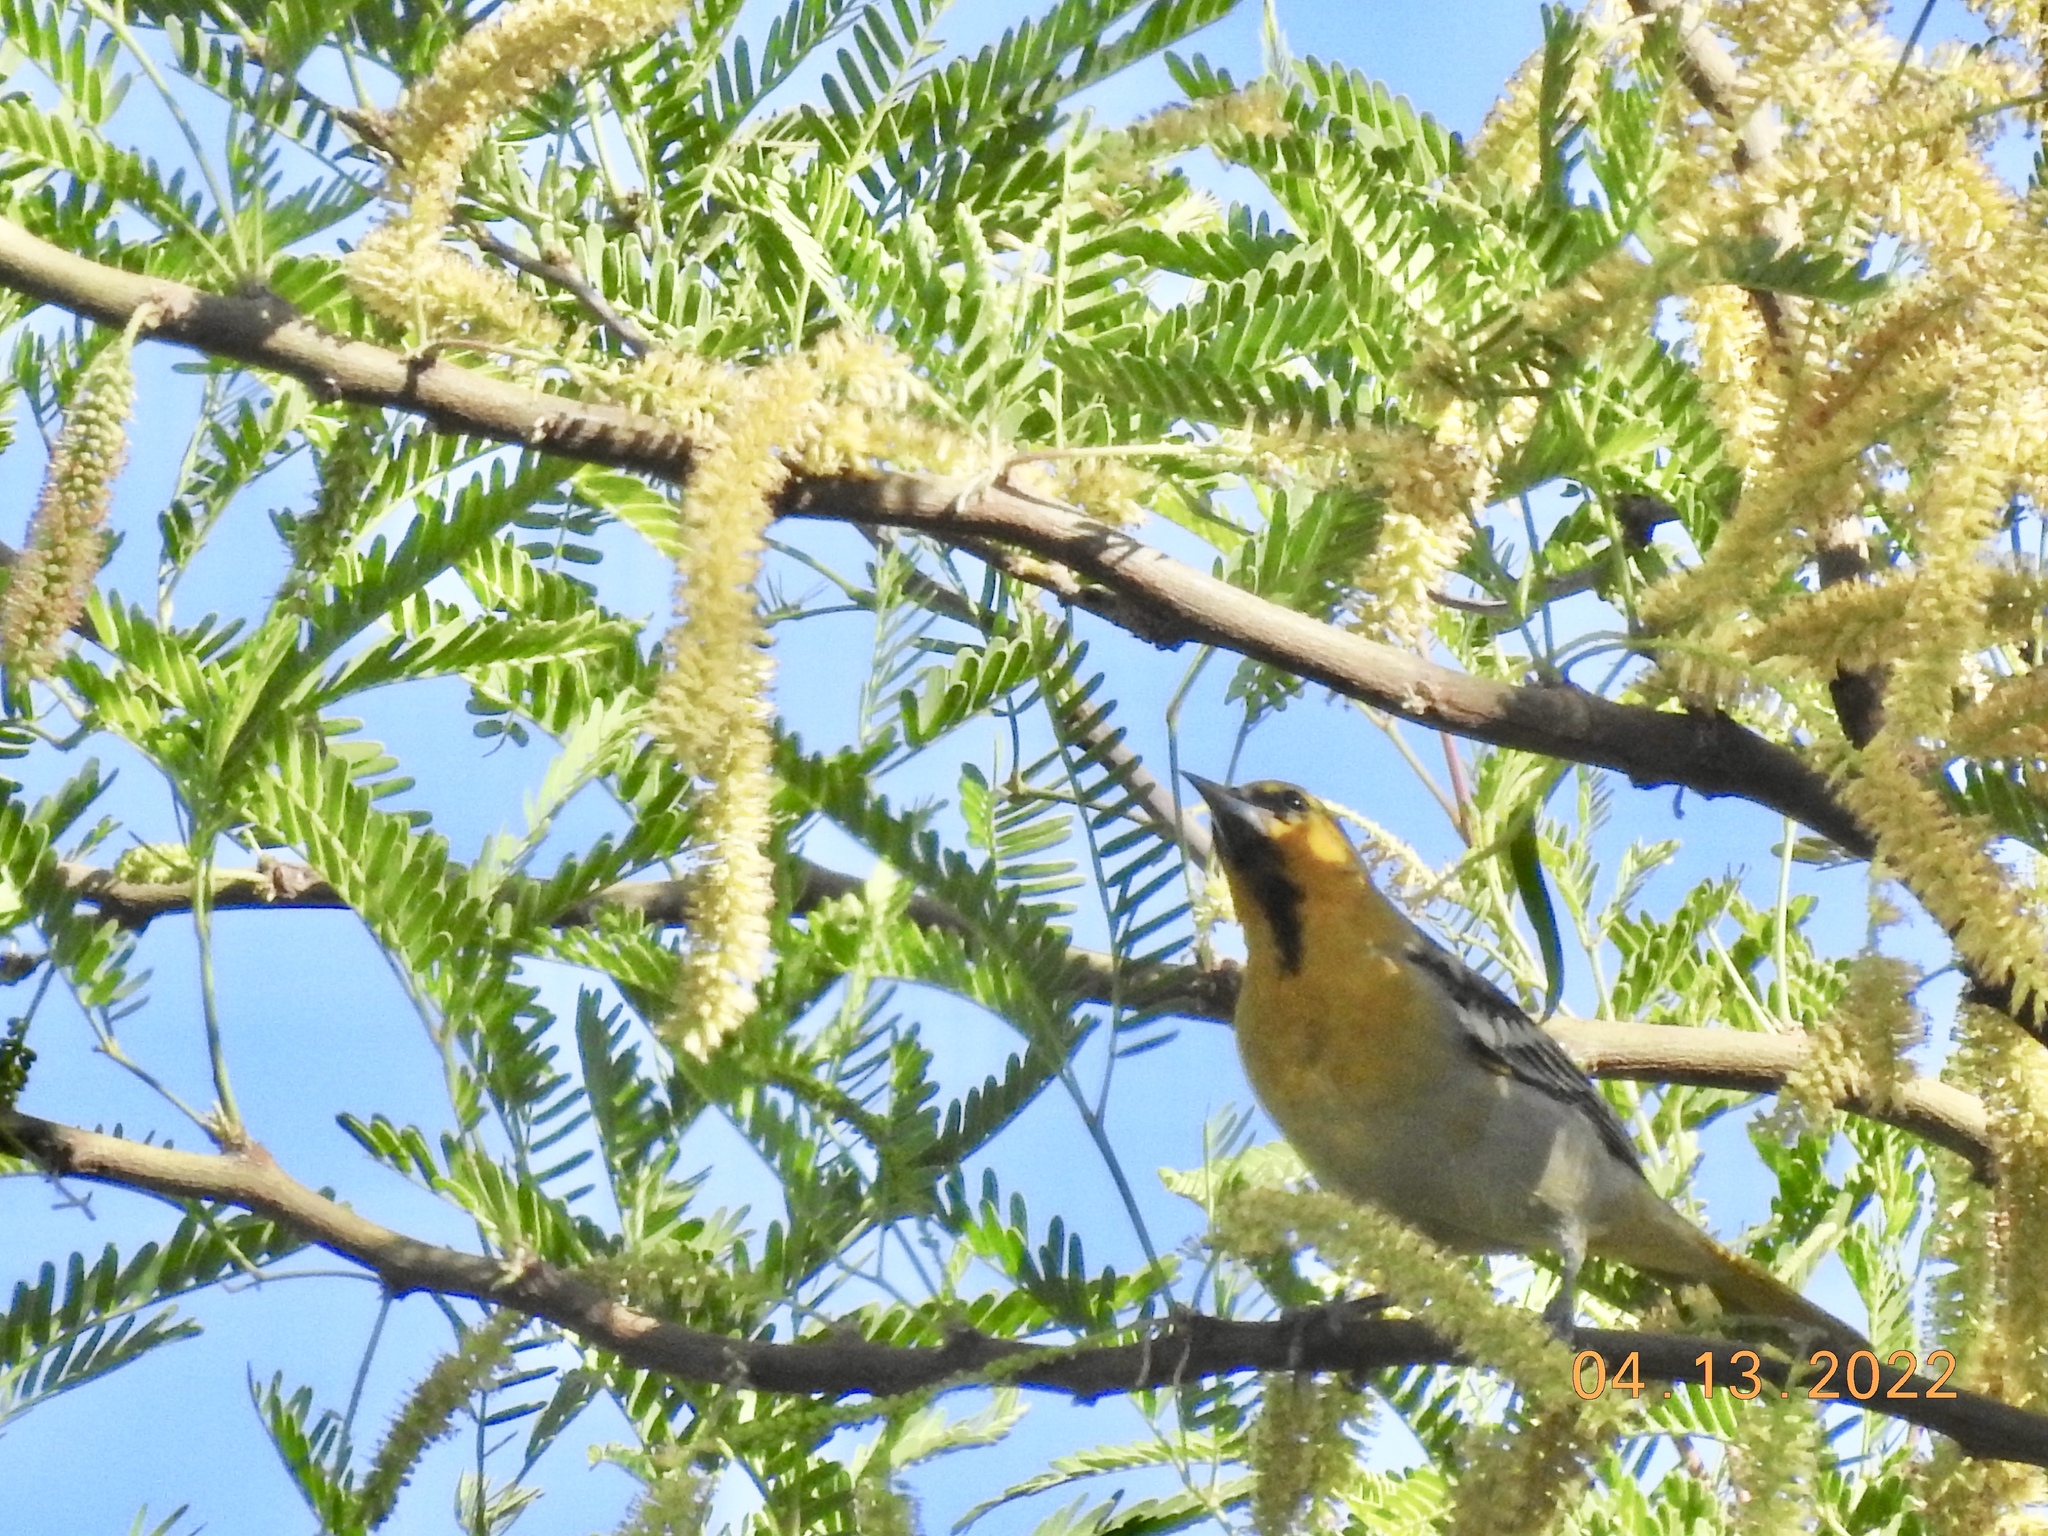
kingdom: Animalia
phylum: Chordata
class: Aves
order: Passeriformes
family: Icteridae
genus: Icterus
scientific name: Icterus bullockii
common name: Bullock's oriole
